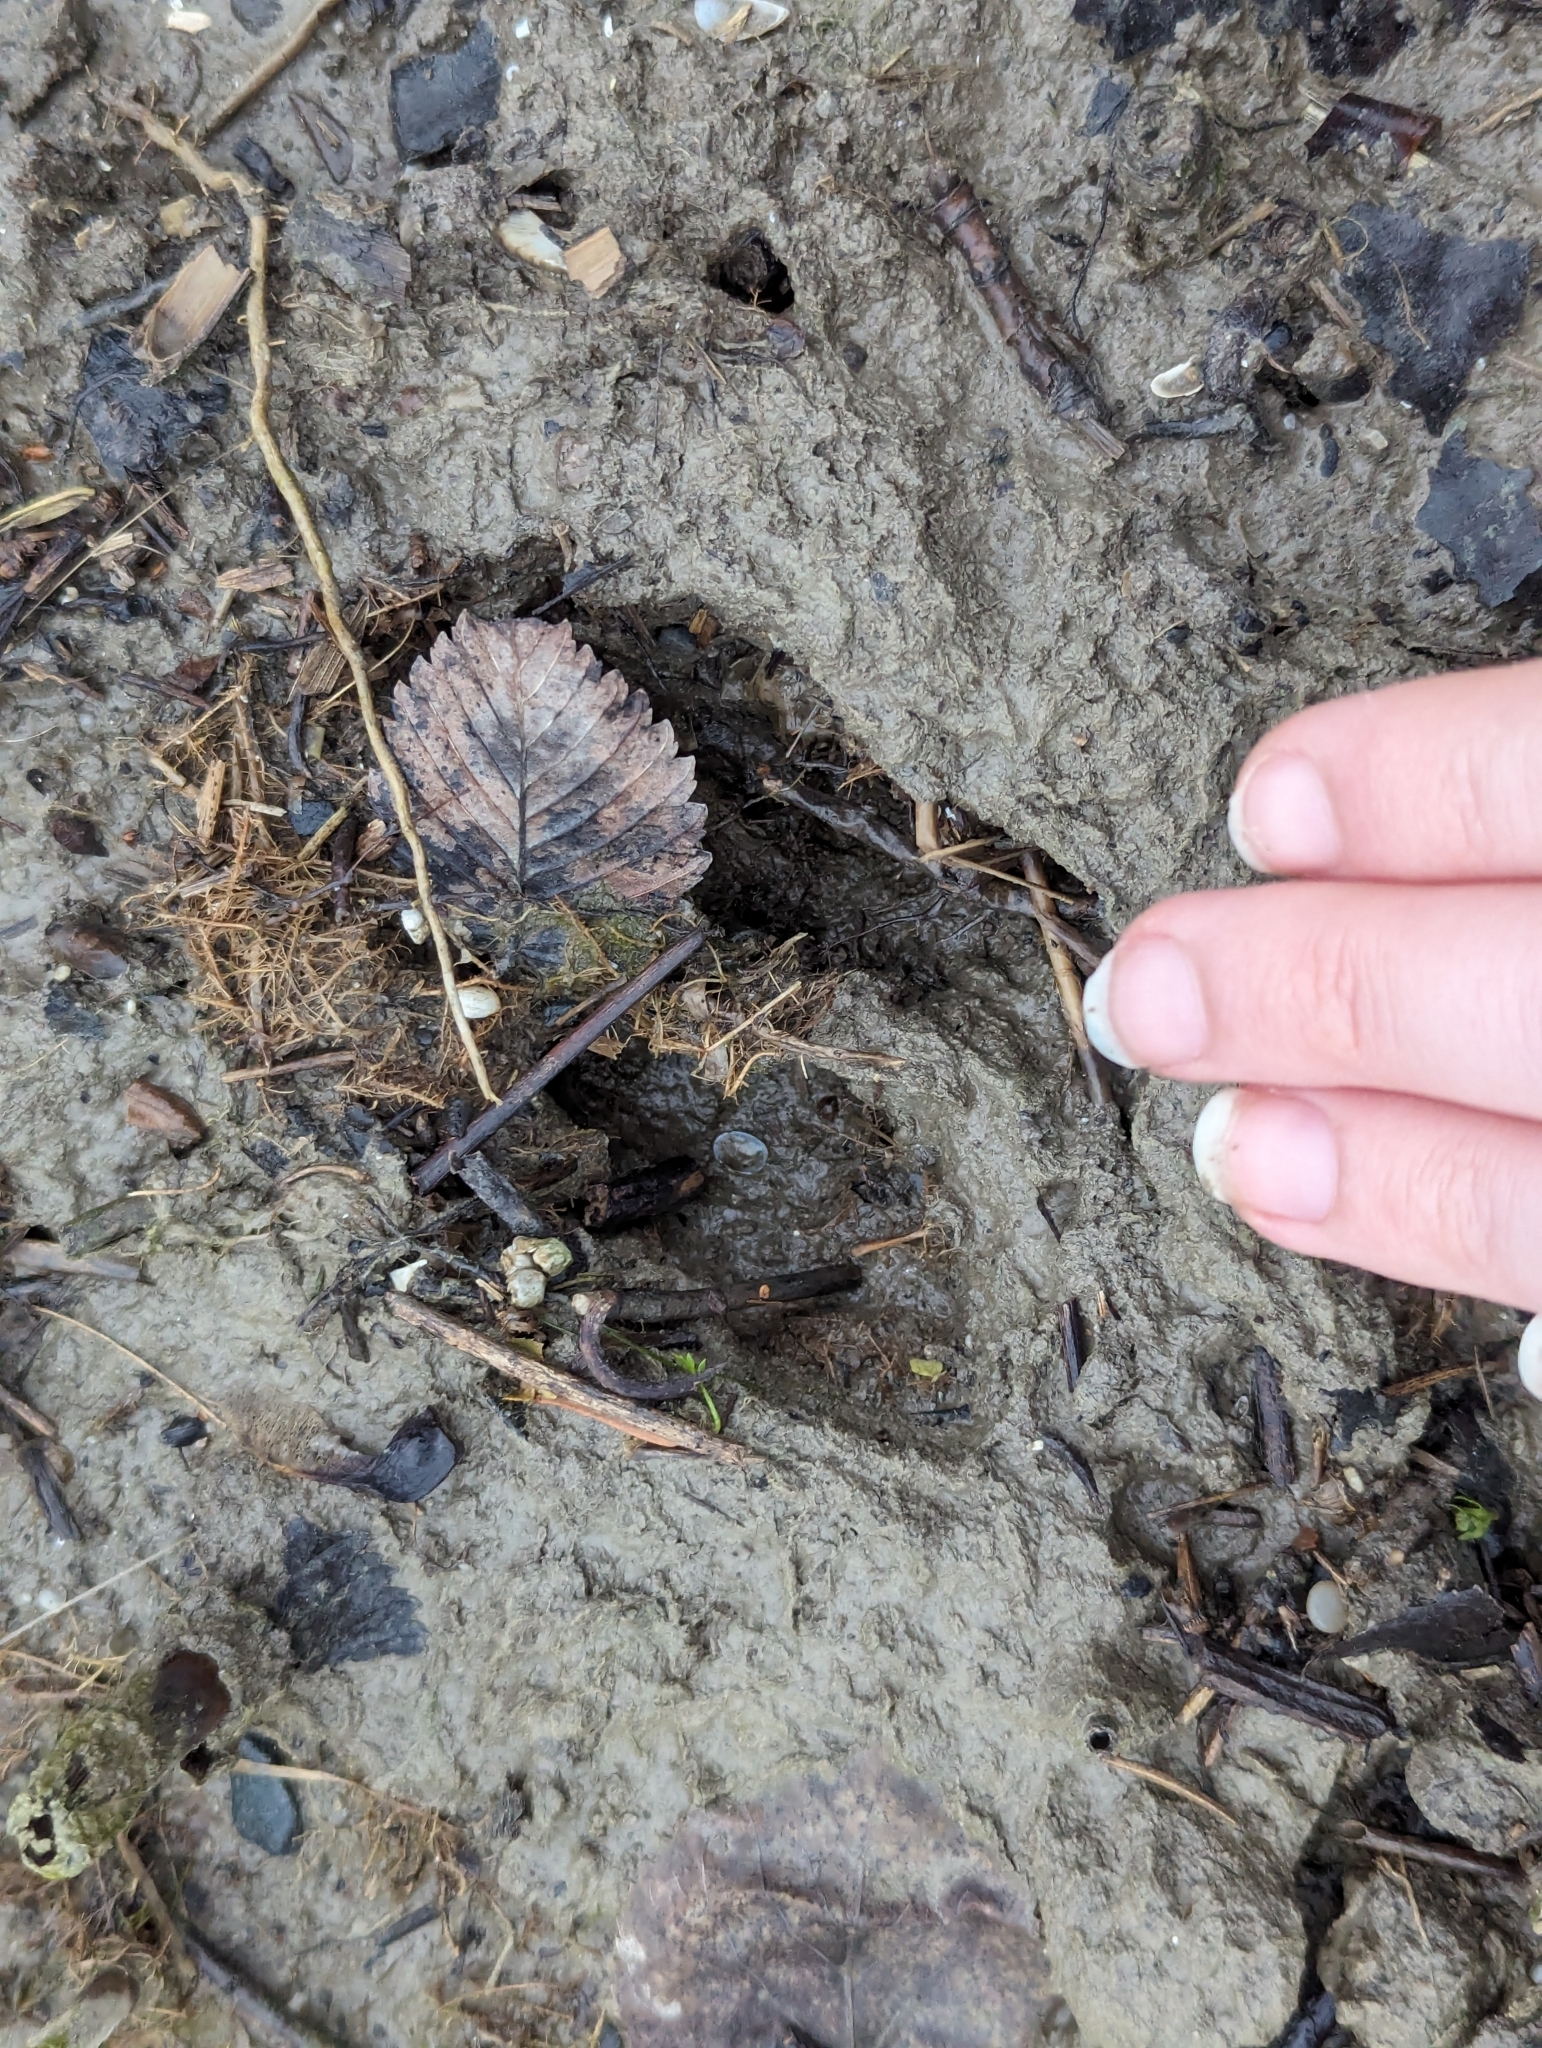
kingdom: Animalia
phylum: Chordata
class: Mammalia
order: Artiodactyla
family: Cervidae
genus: Odocoileus
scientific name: Odocoileus virginianus
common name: White-tailed deer
